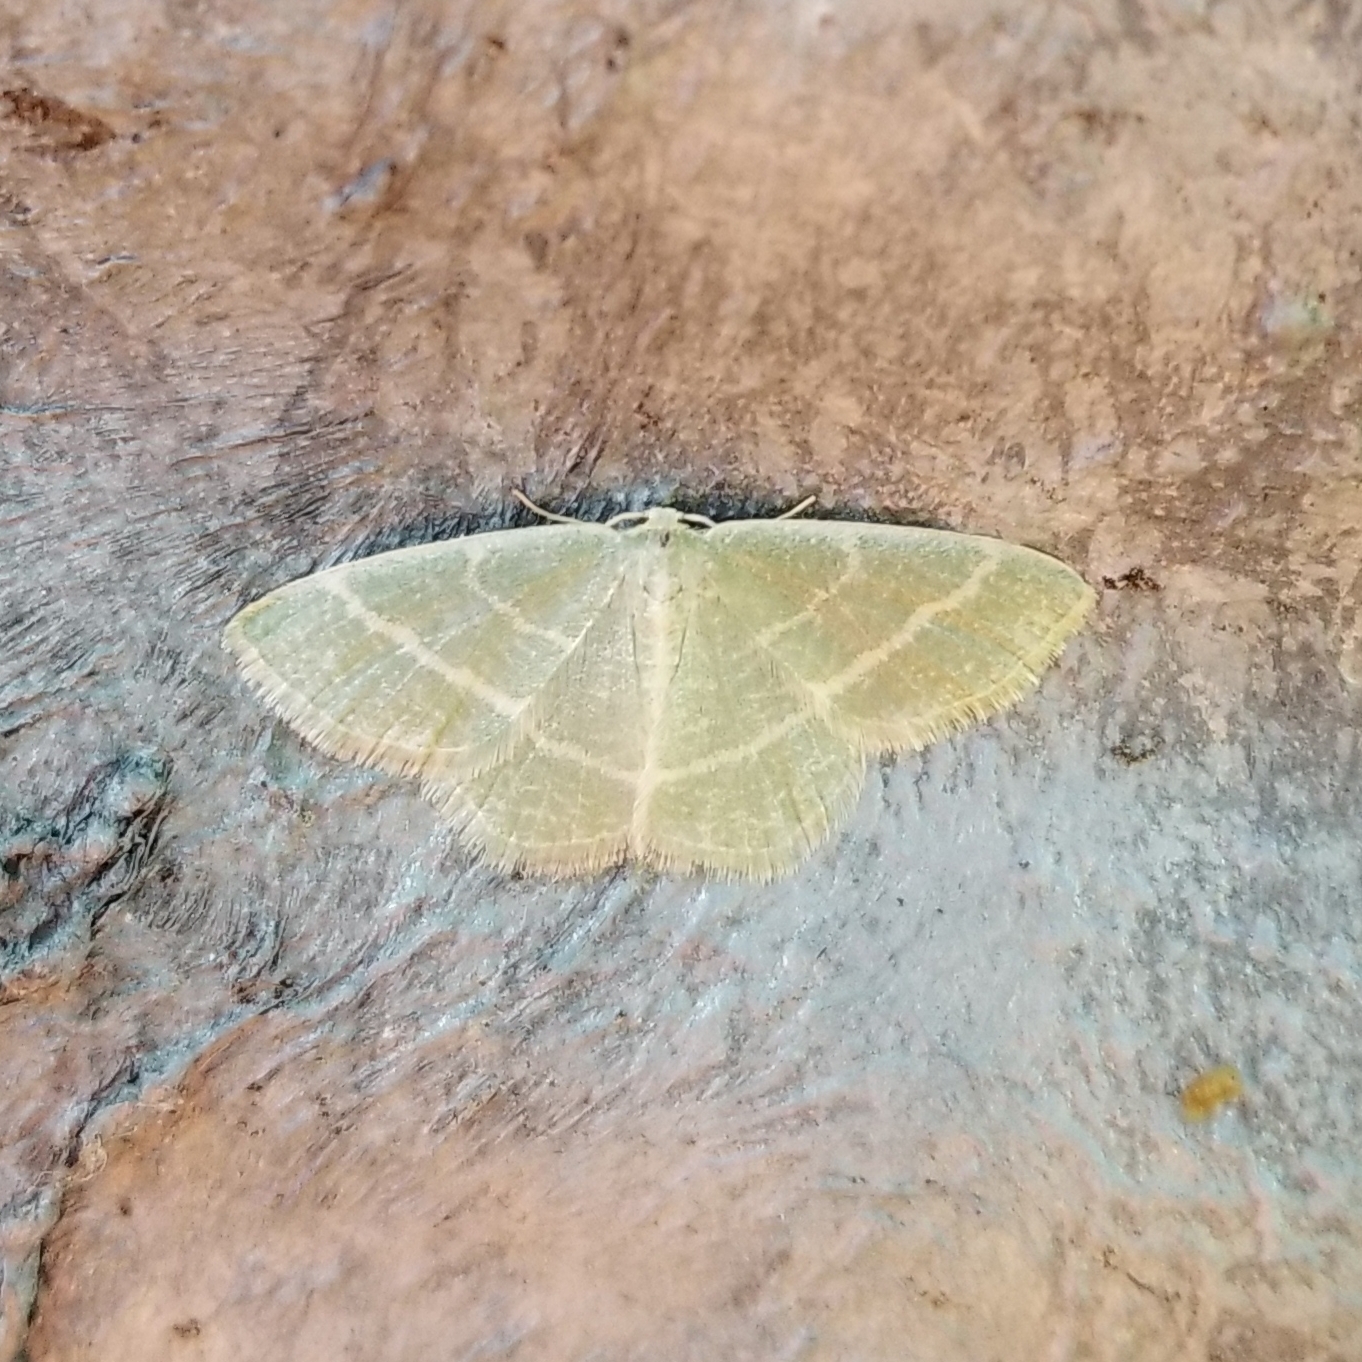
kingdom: Animalia
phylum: Arthropoda
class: Insecta
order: Lepidoptera
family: Geometridae
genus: Chlorochlamys
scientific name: Chlorochlamys chloroleucaria
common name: Blackberry looper
